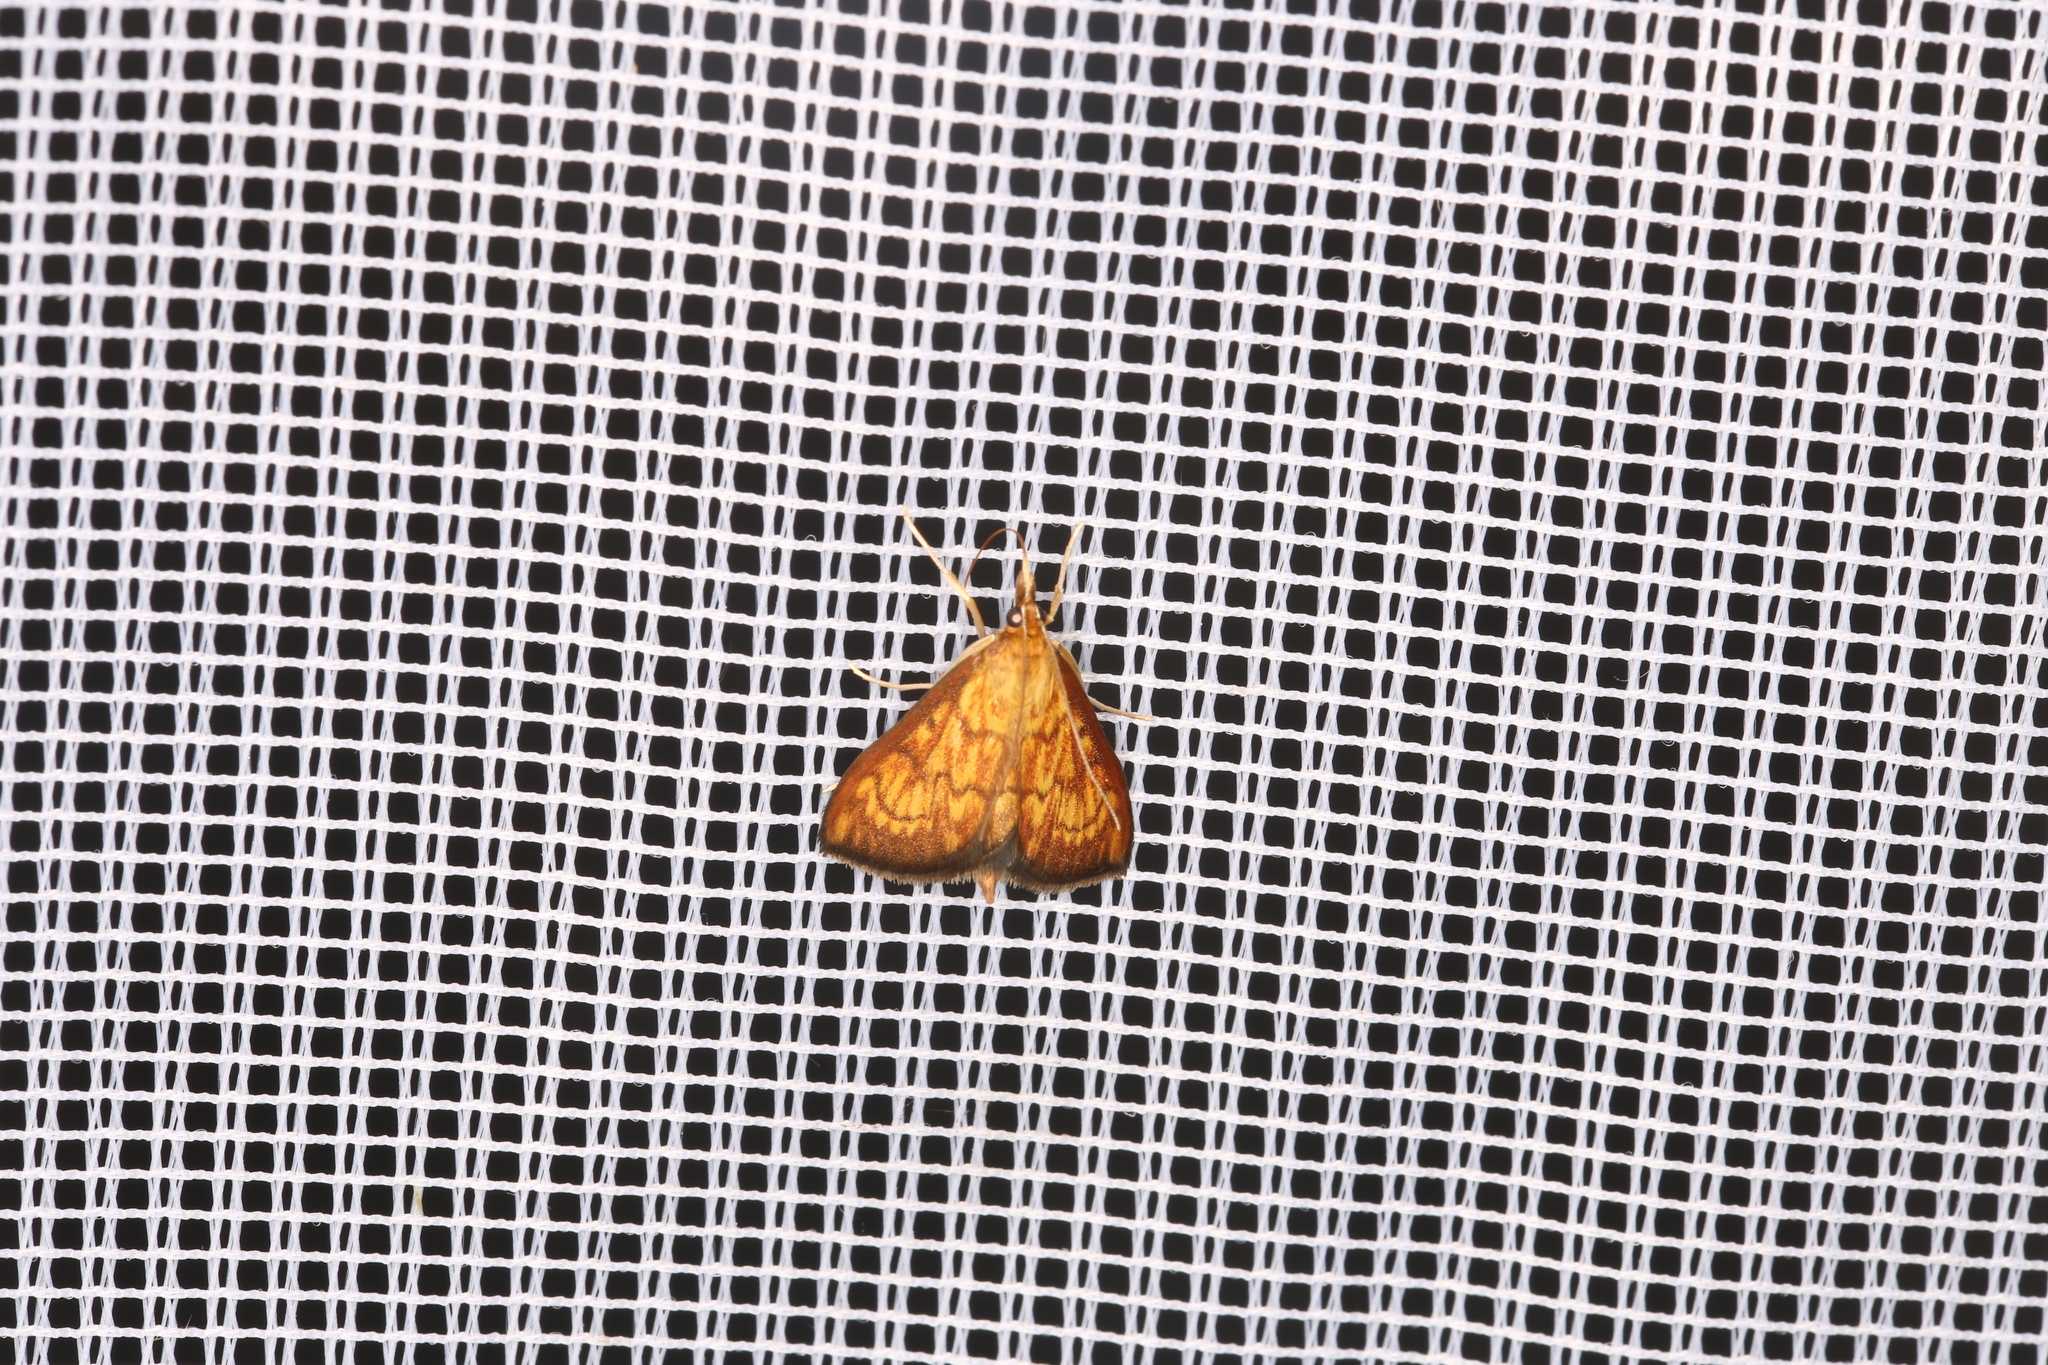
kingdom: Animalia
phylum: Arthropoda
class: Insecta
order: Lepidoptera
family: Crambidae
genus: Ecpyrrhorrhoe
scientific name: Ecpyrrhorrhoe rubiginalis
